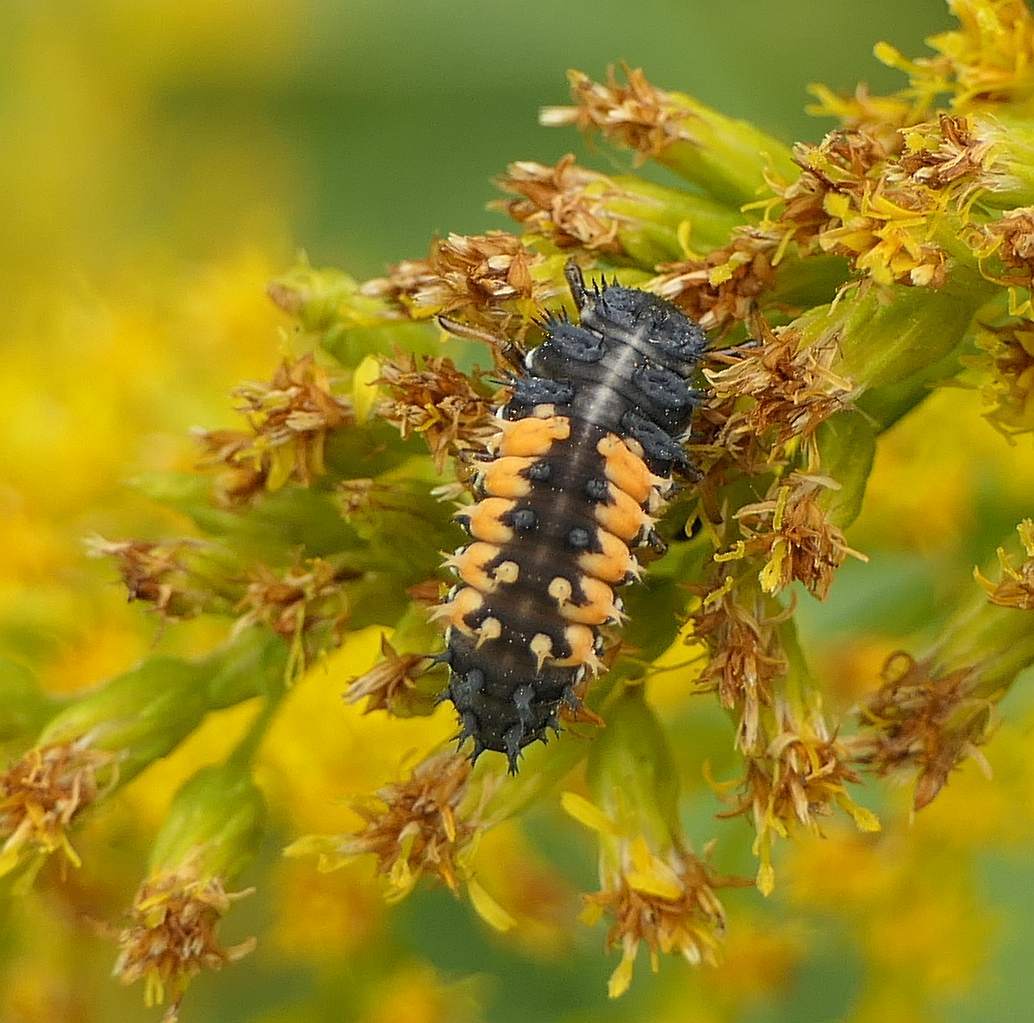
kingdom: Animalia
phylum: Arthropoda
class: Insecta
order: Coleoptera
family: Coccinellidae
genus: Harmonia
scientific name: Harmonia axyridis
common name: Harlequin ladybird
